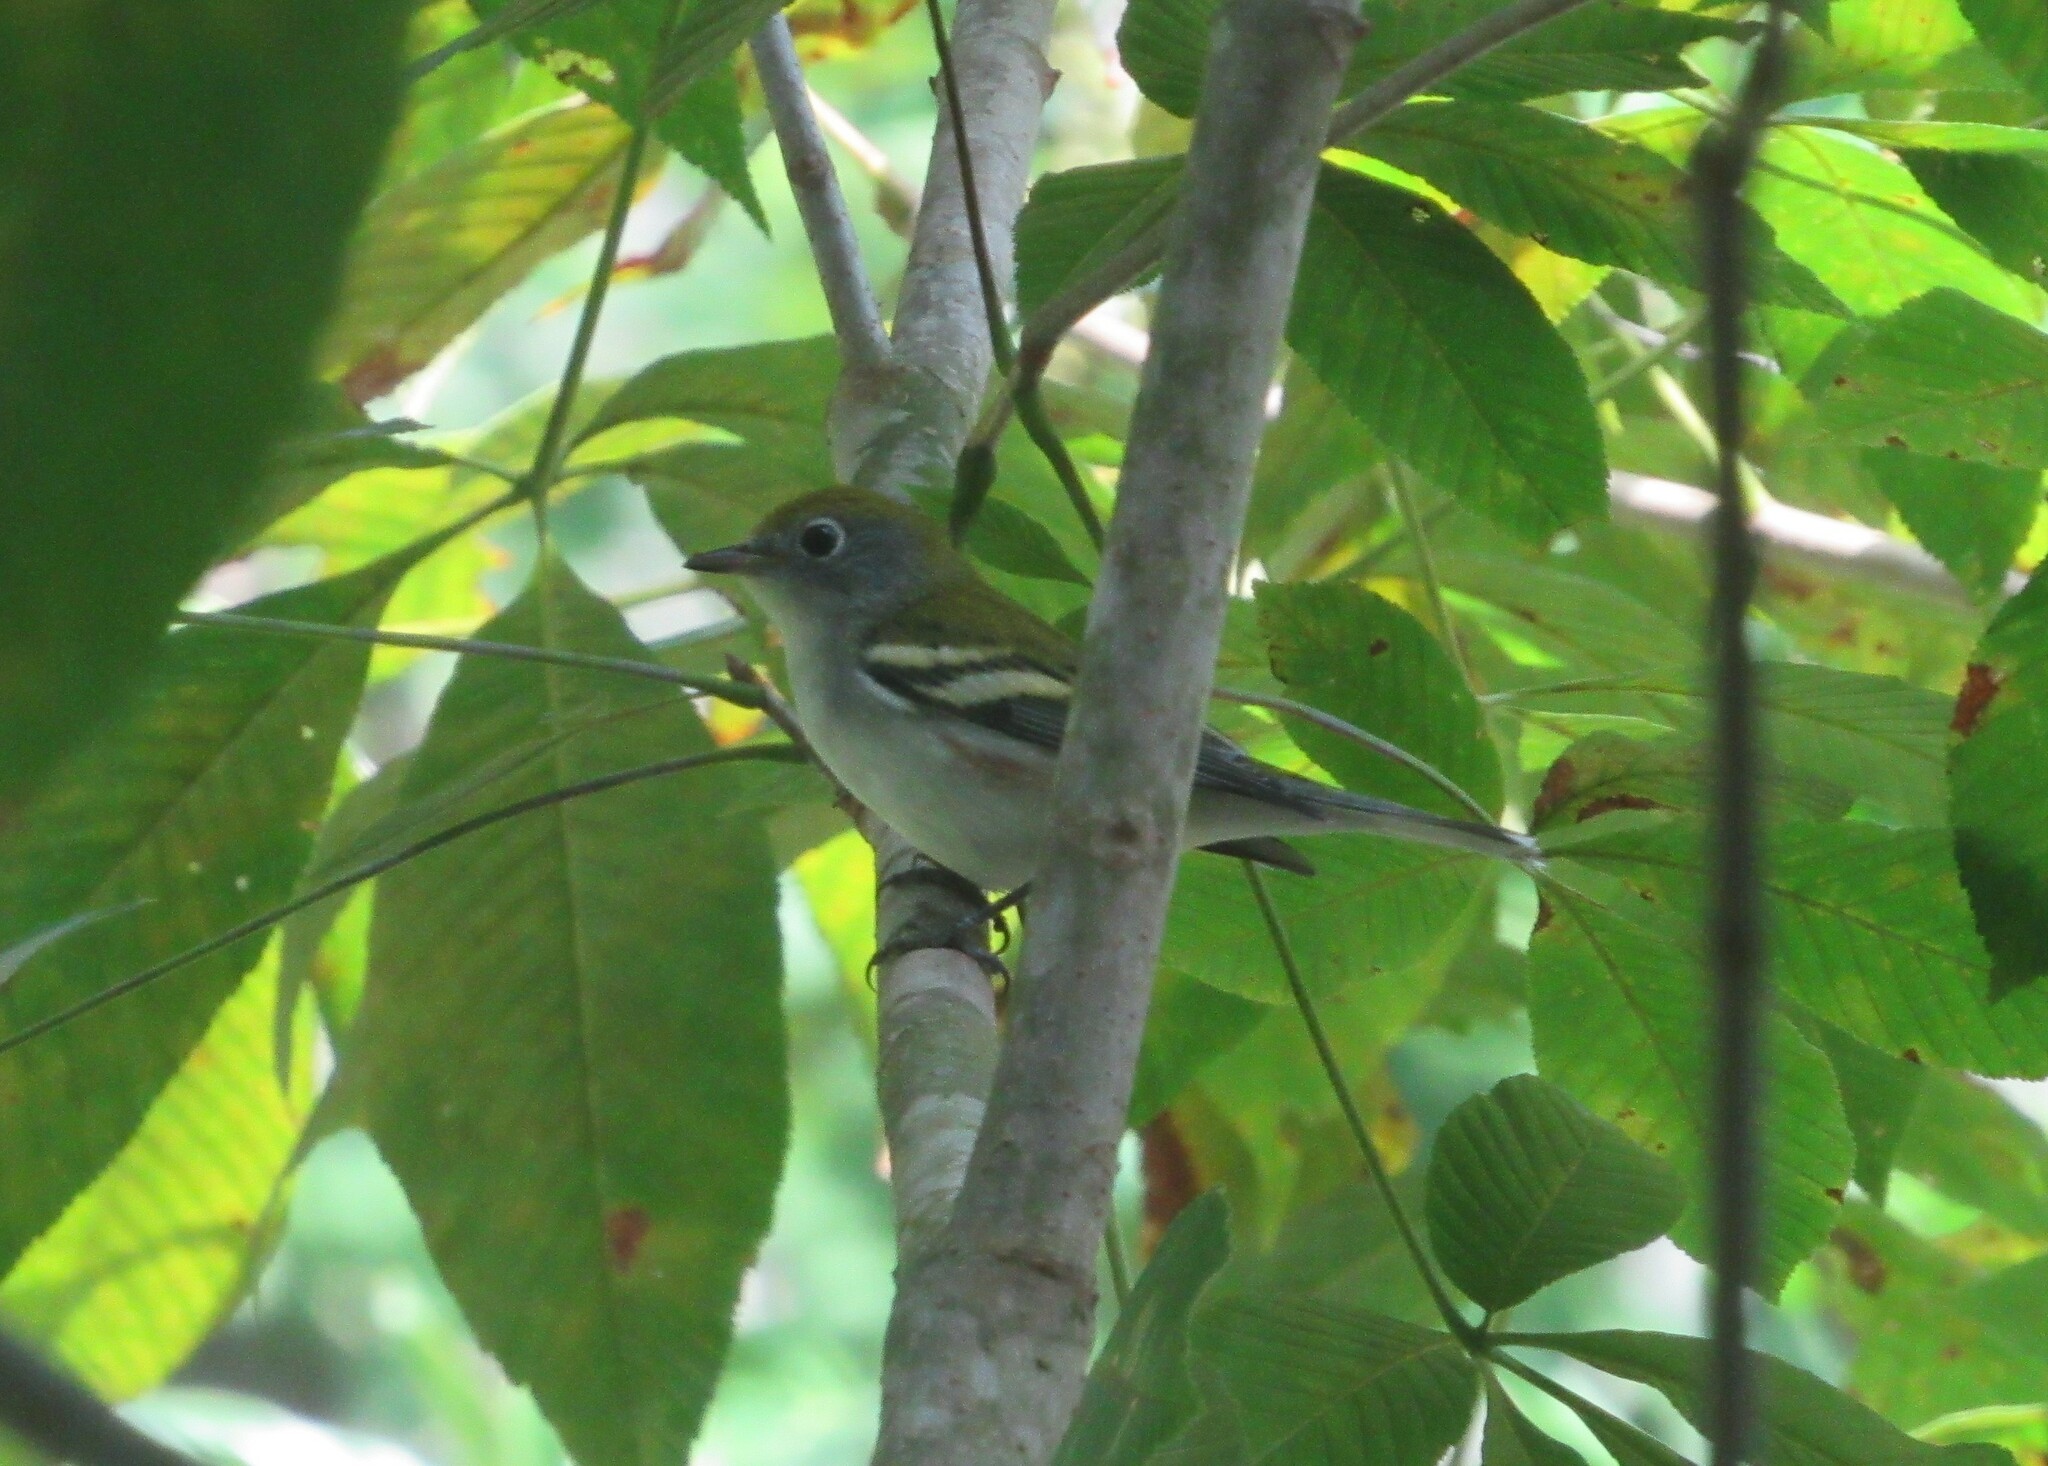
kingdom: Animalia
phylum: Chordata
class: Aves
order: Passeriformes
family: Parulidae
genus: Setophaga
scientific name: Setophaga pensylvanica
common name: Chestnut-sided warbler
